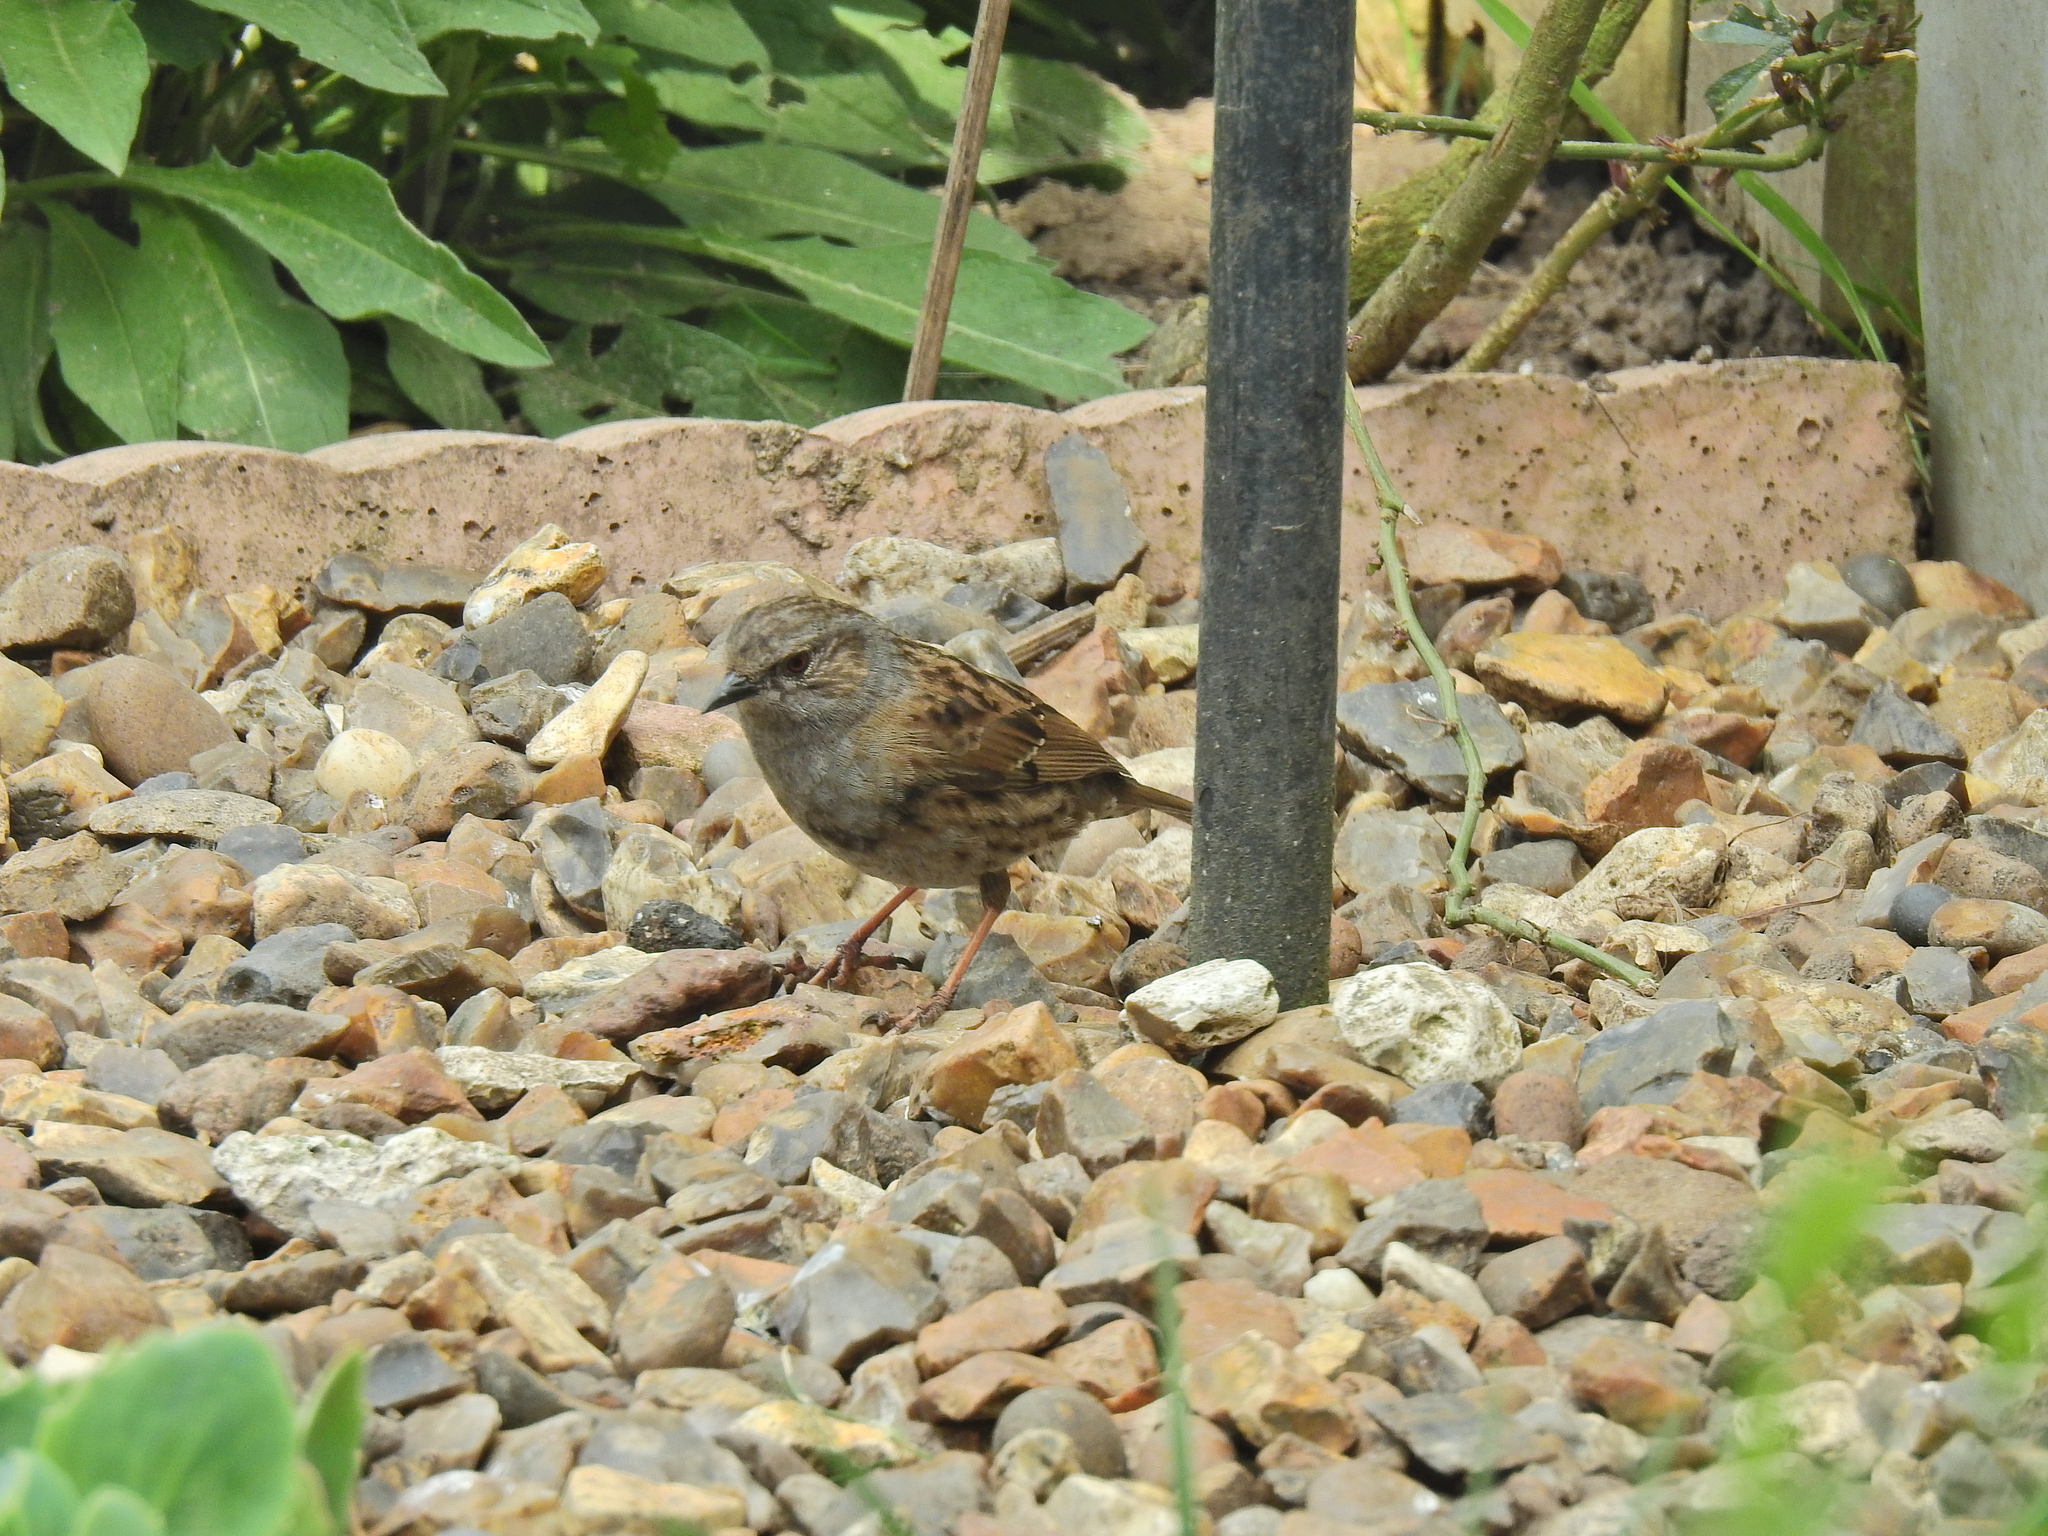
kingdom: Animalia
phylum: Chordata
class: Aves
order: Passeriformes
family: Prunellidae
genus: Prunella
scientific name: Prunella modularis
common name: Dunnock
